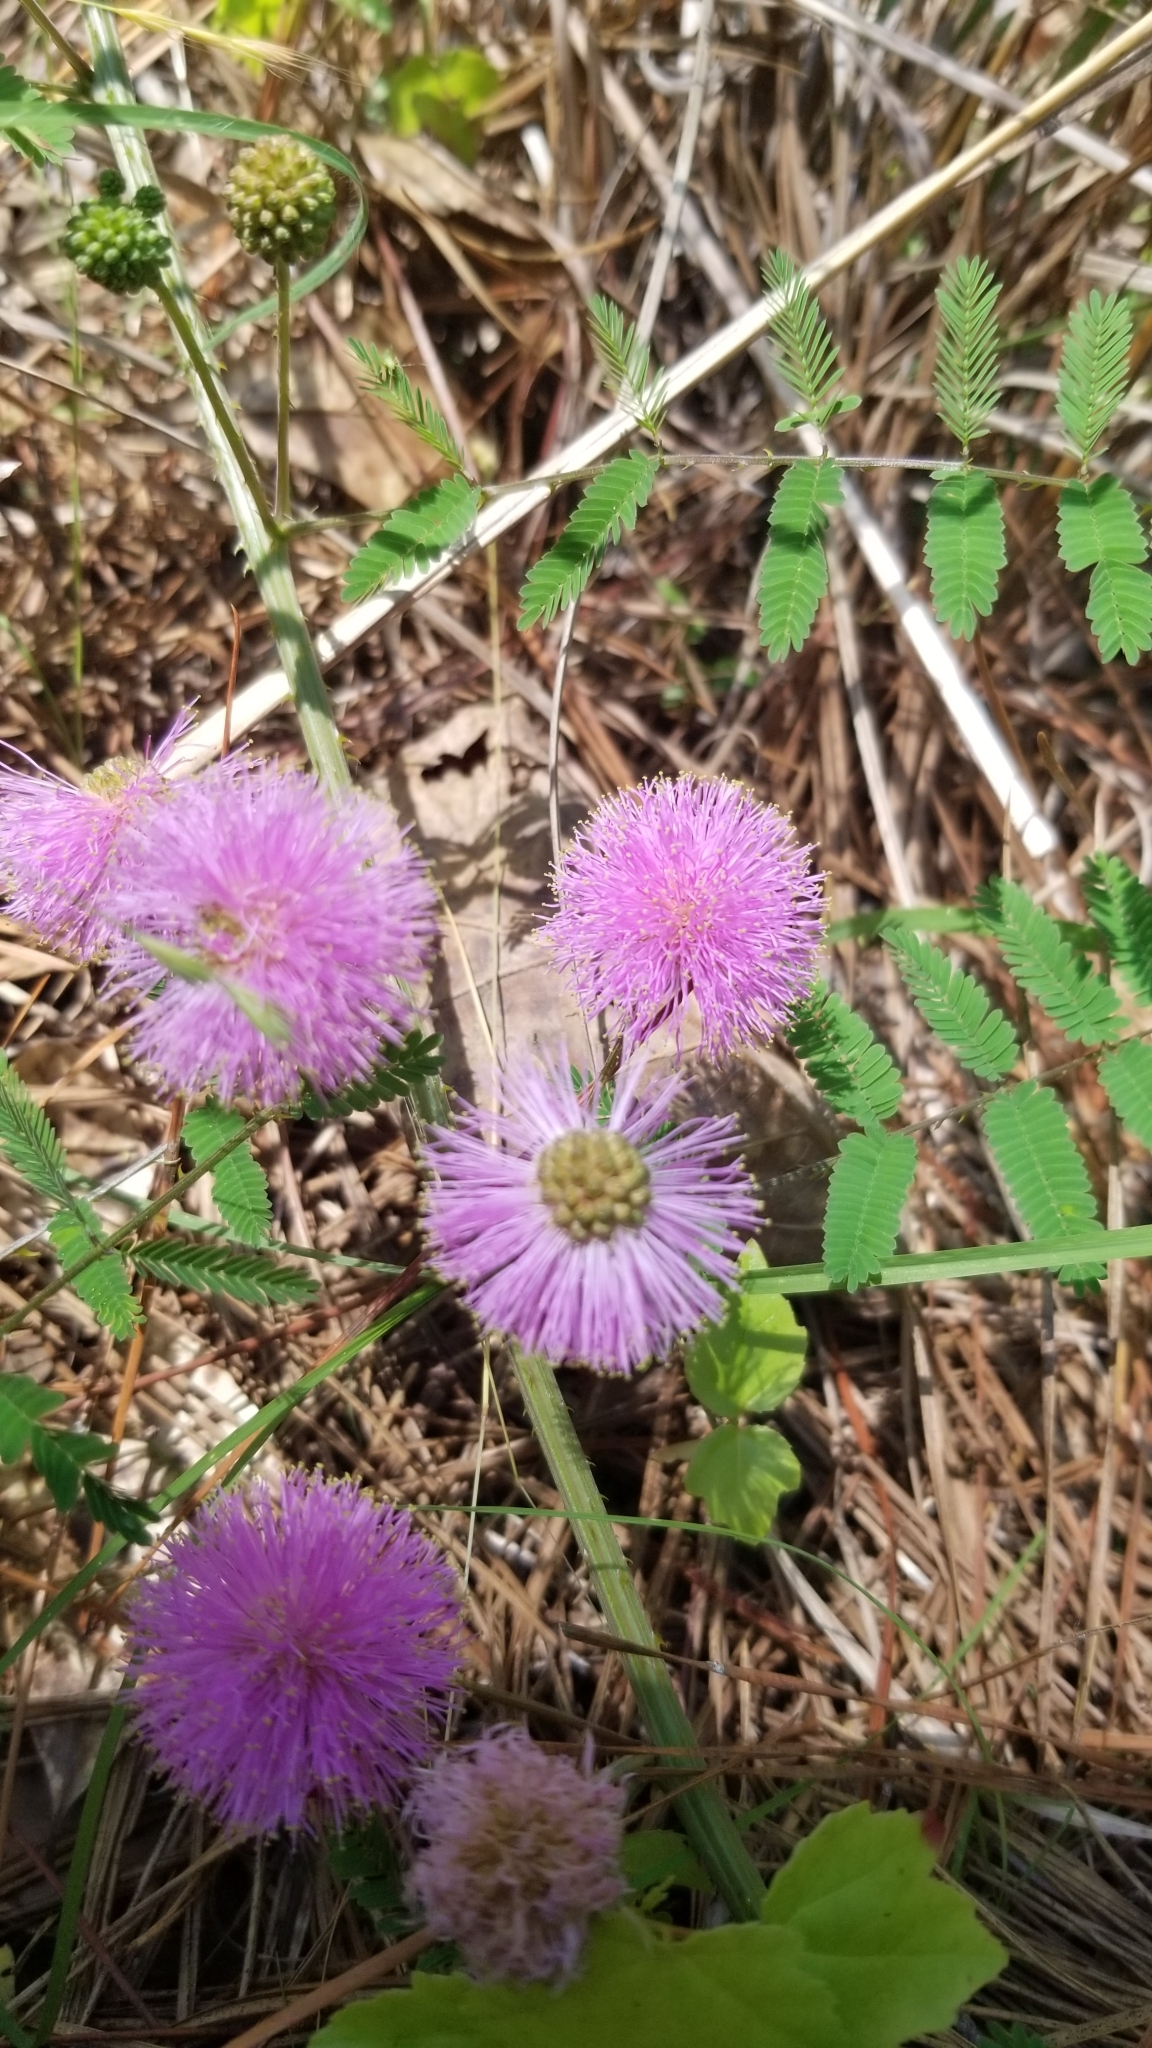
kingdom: Plantae
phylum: Tracheophyta
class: Magnoliopsida
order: Fabales
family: Fabaceae
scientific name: Fabaceae
